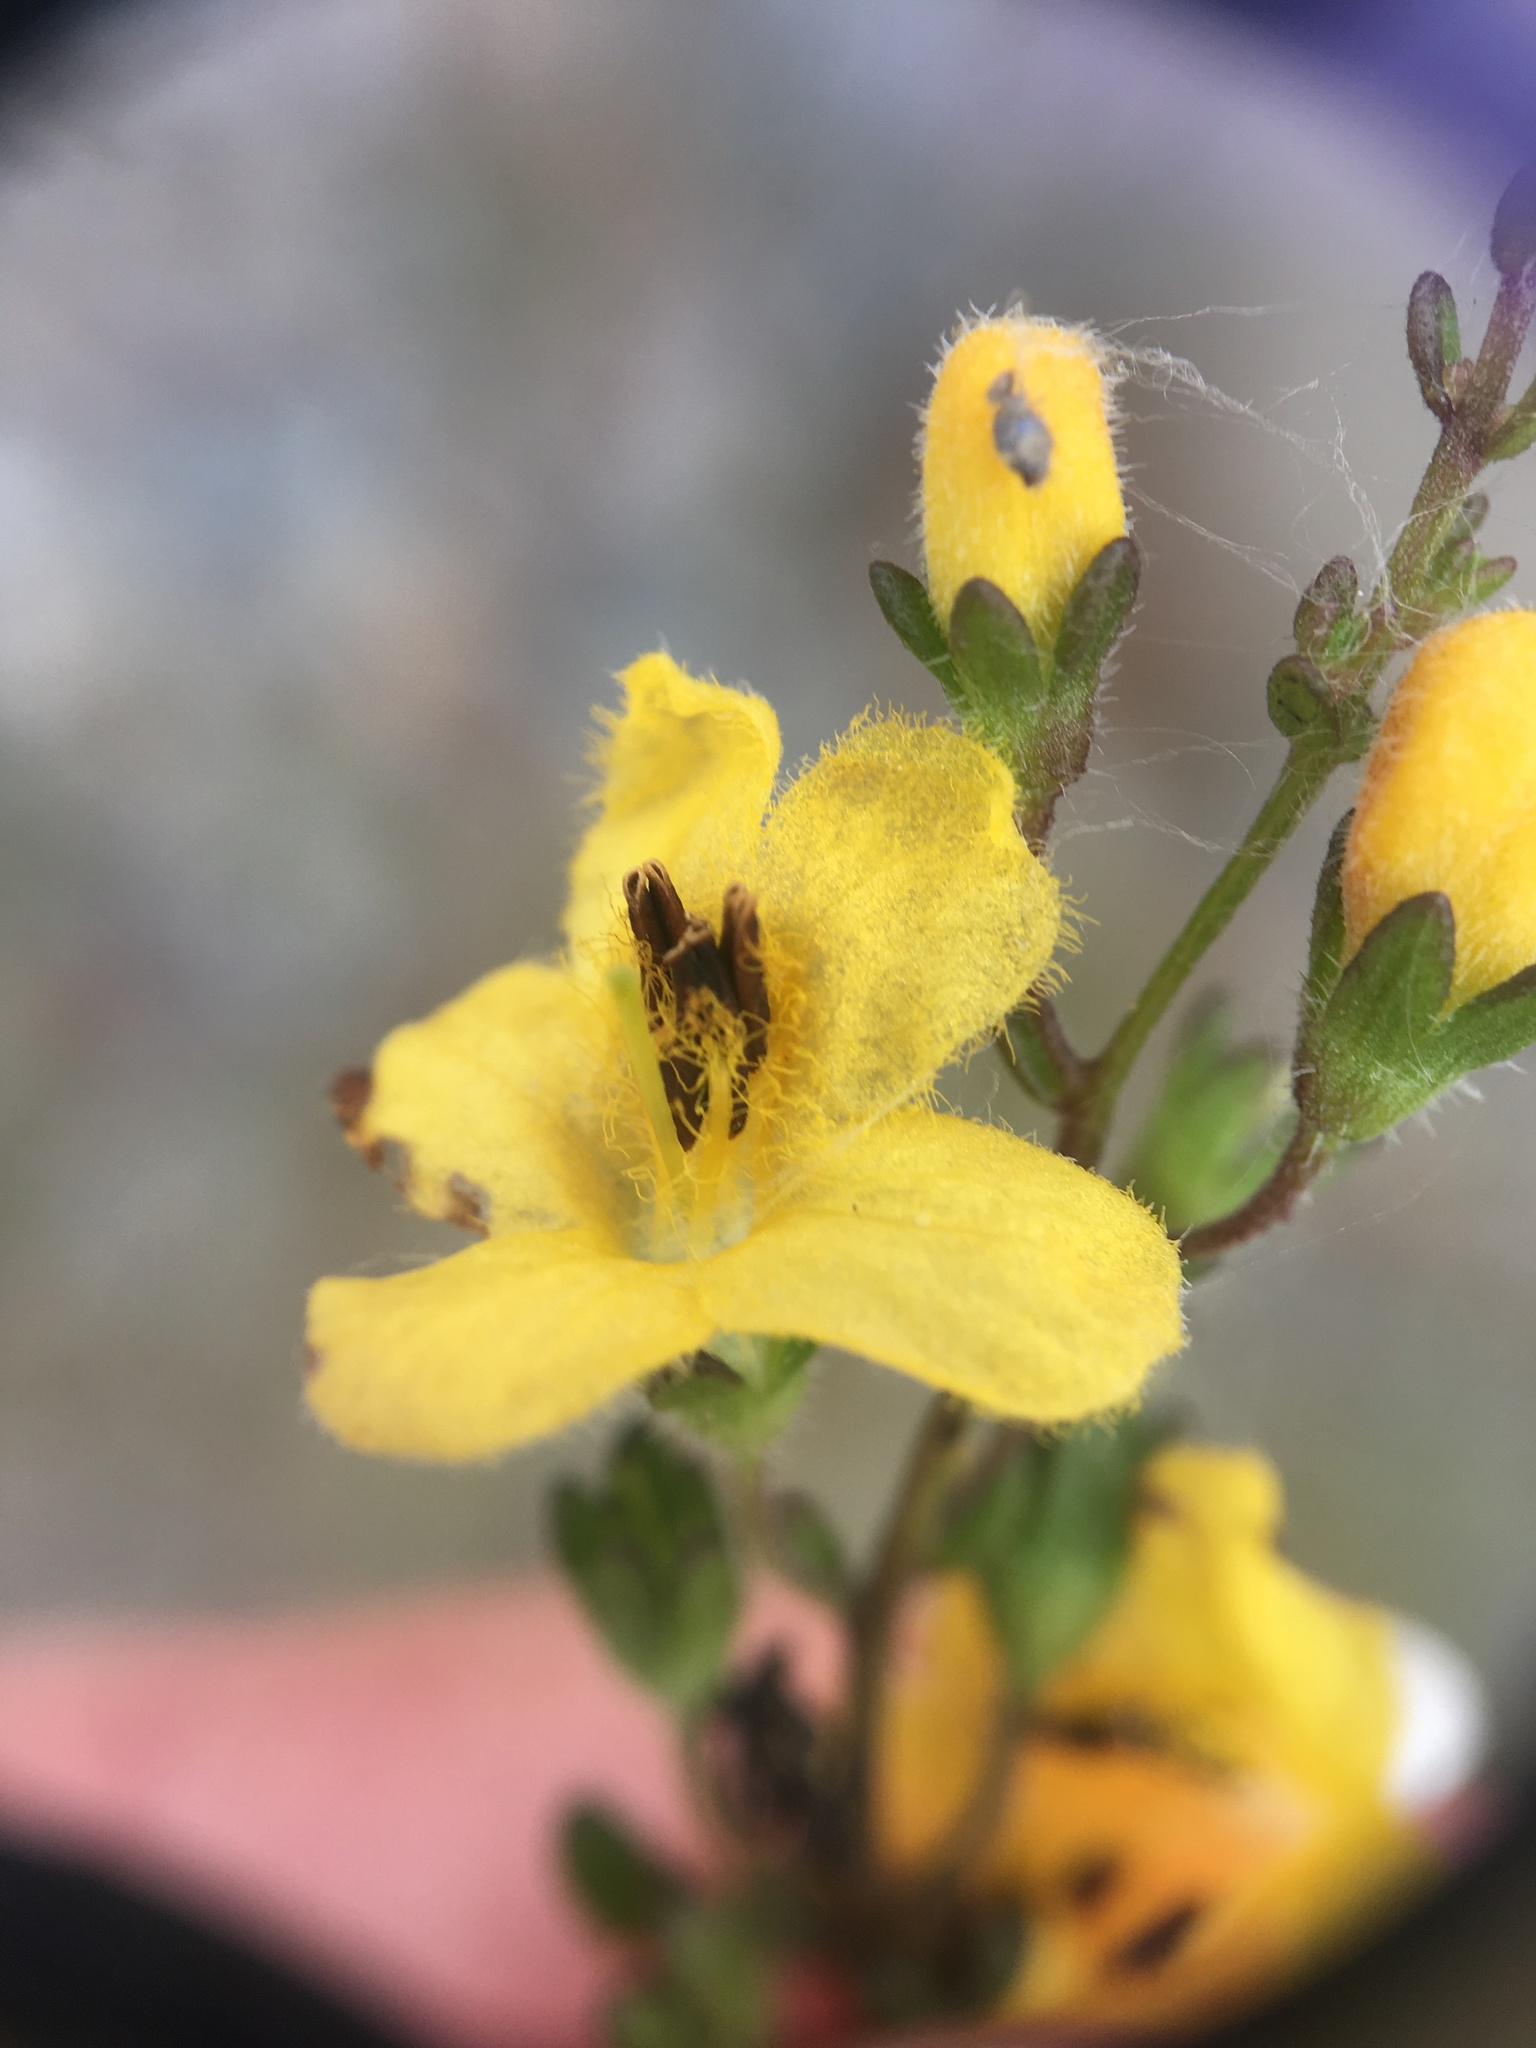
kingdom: Plantae
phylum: Tracheophyta
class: Magnoliopsida
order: Lamiales
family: Orobanchaceae
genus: Seymeria
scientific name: Seymeria pectinata
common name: Piedmont black-senna
